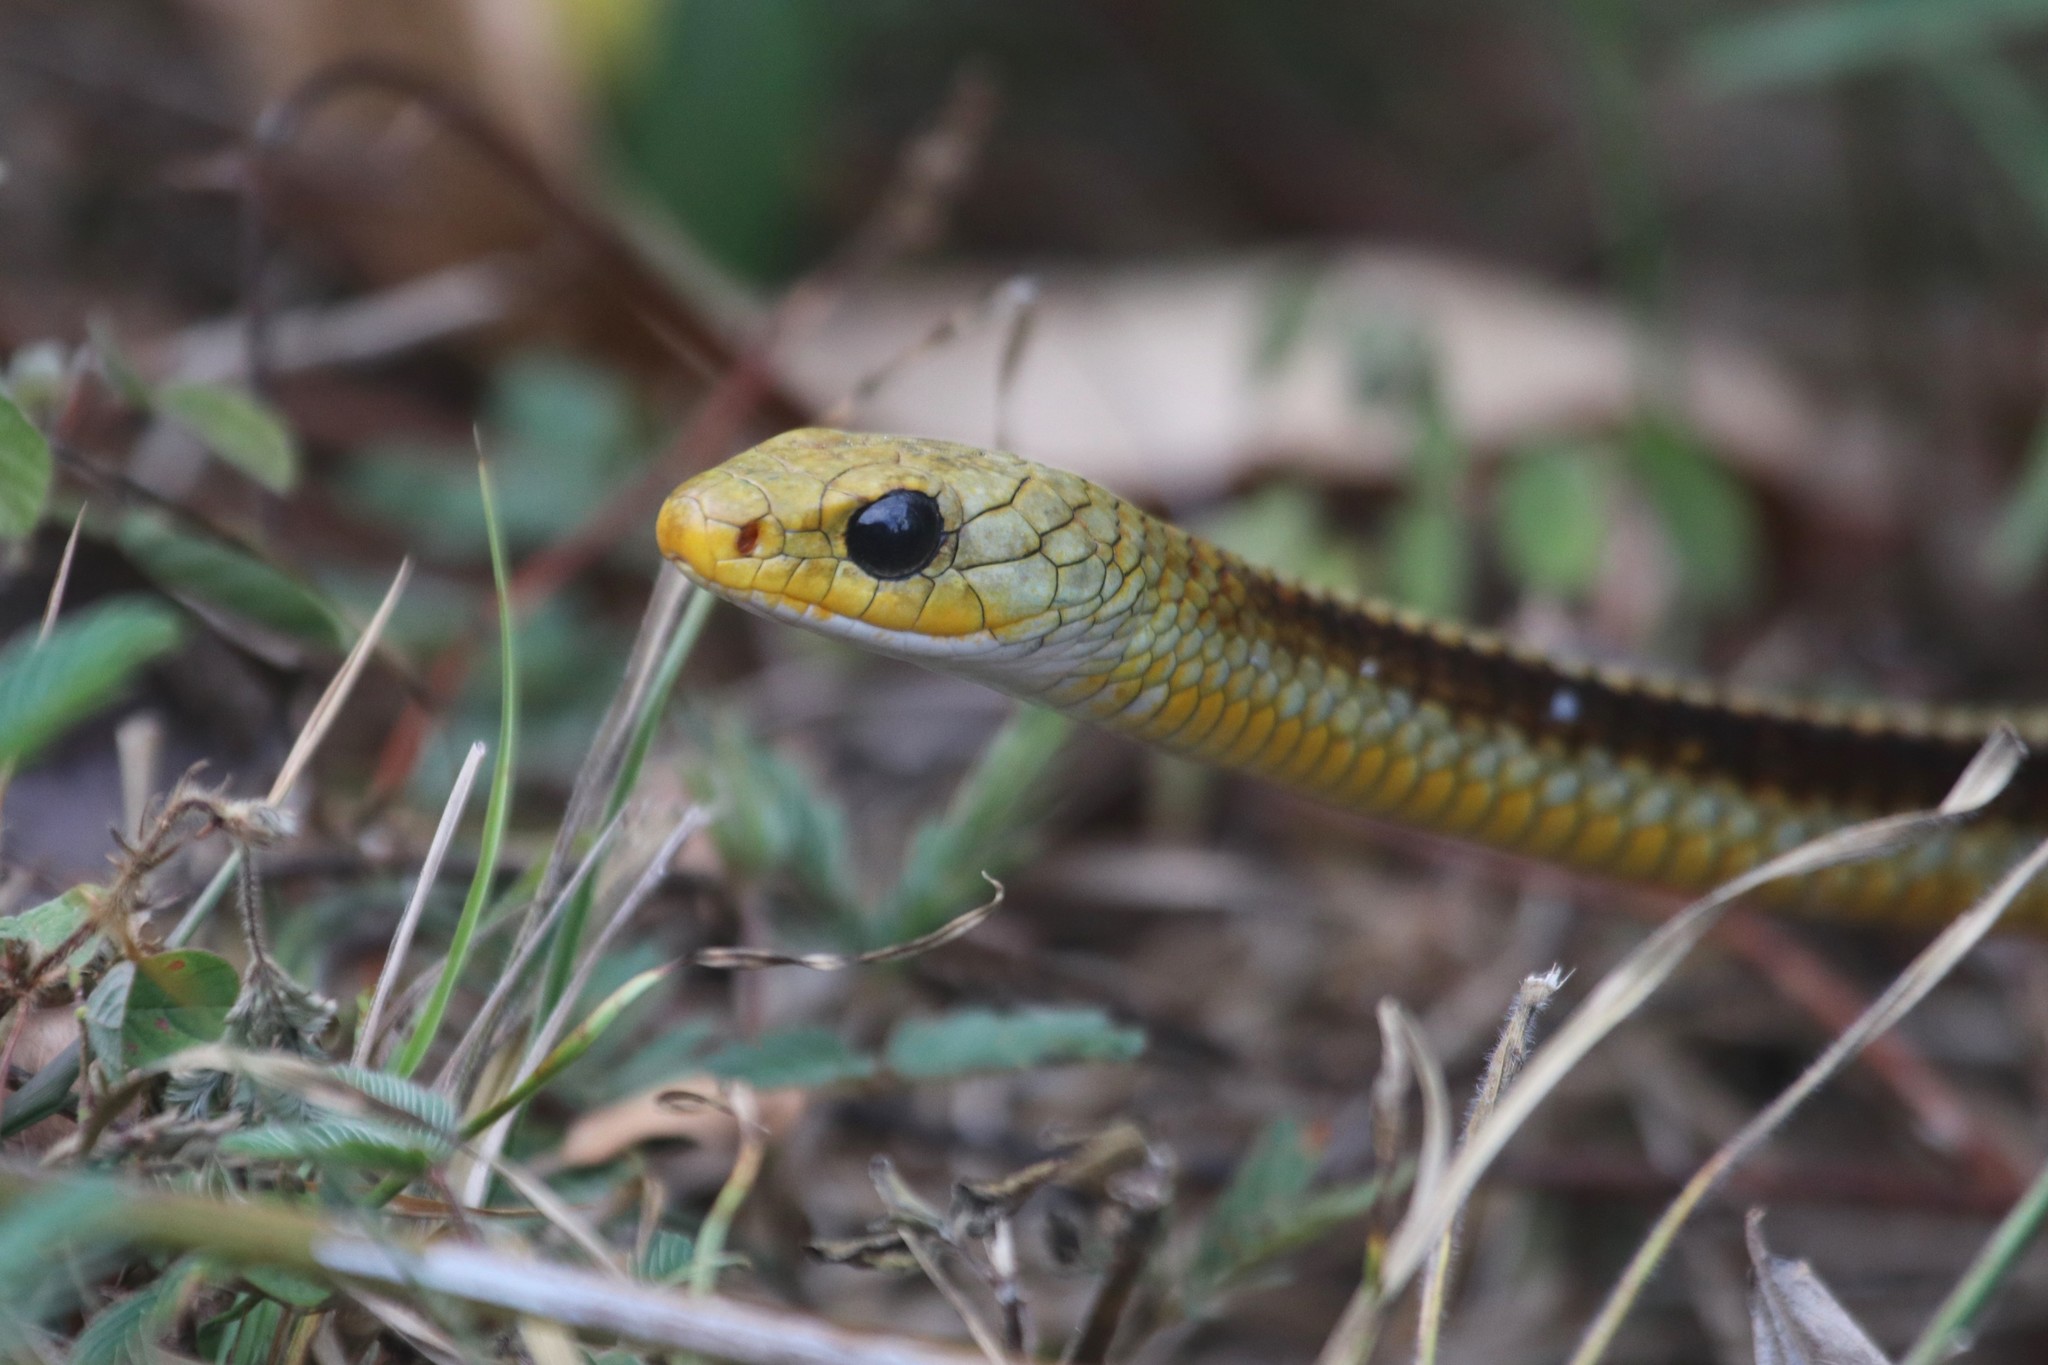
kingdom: Animalia
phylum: Chordata
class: Squamata
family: Colubridae
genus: Chironius
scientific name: Chironius spixii
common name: Sipo
